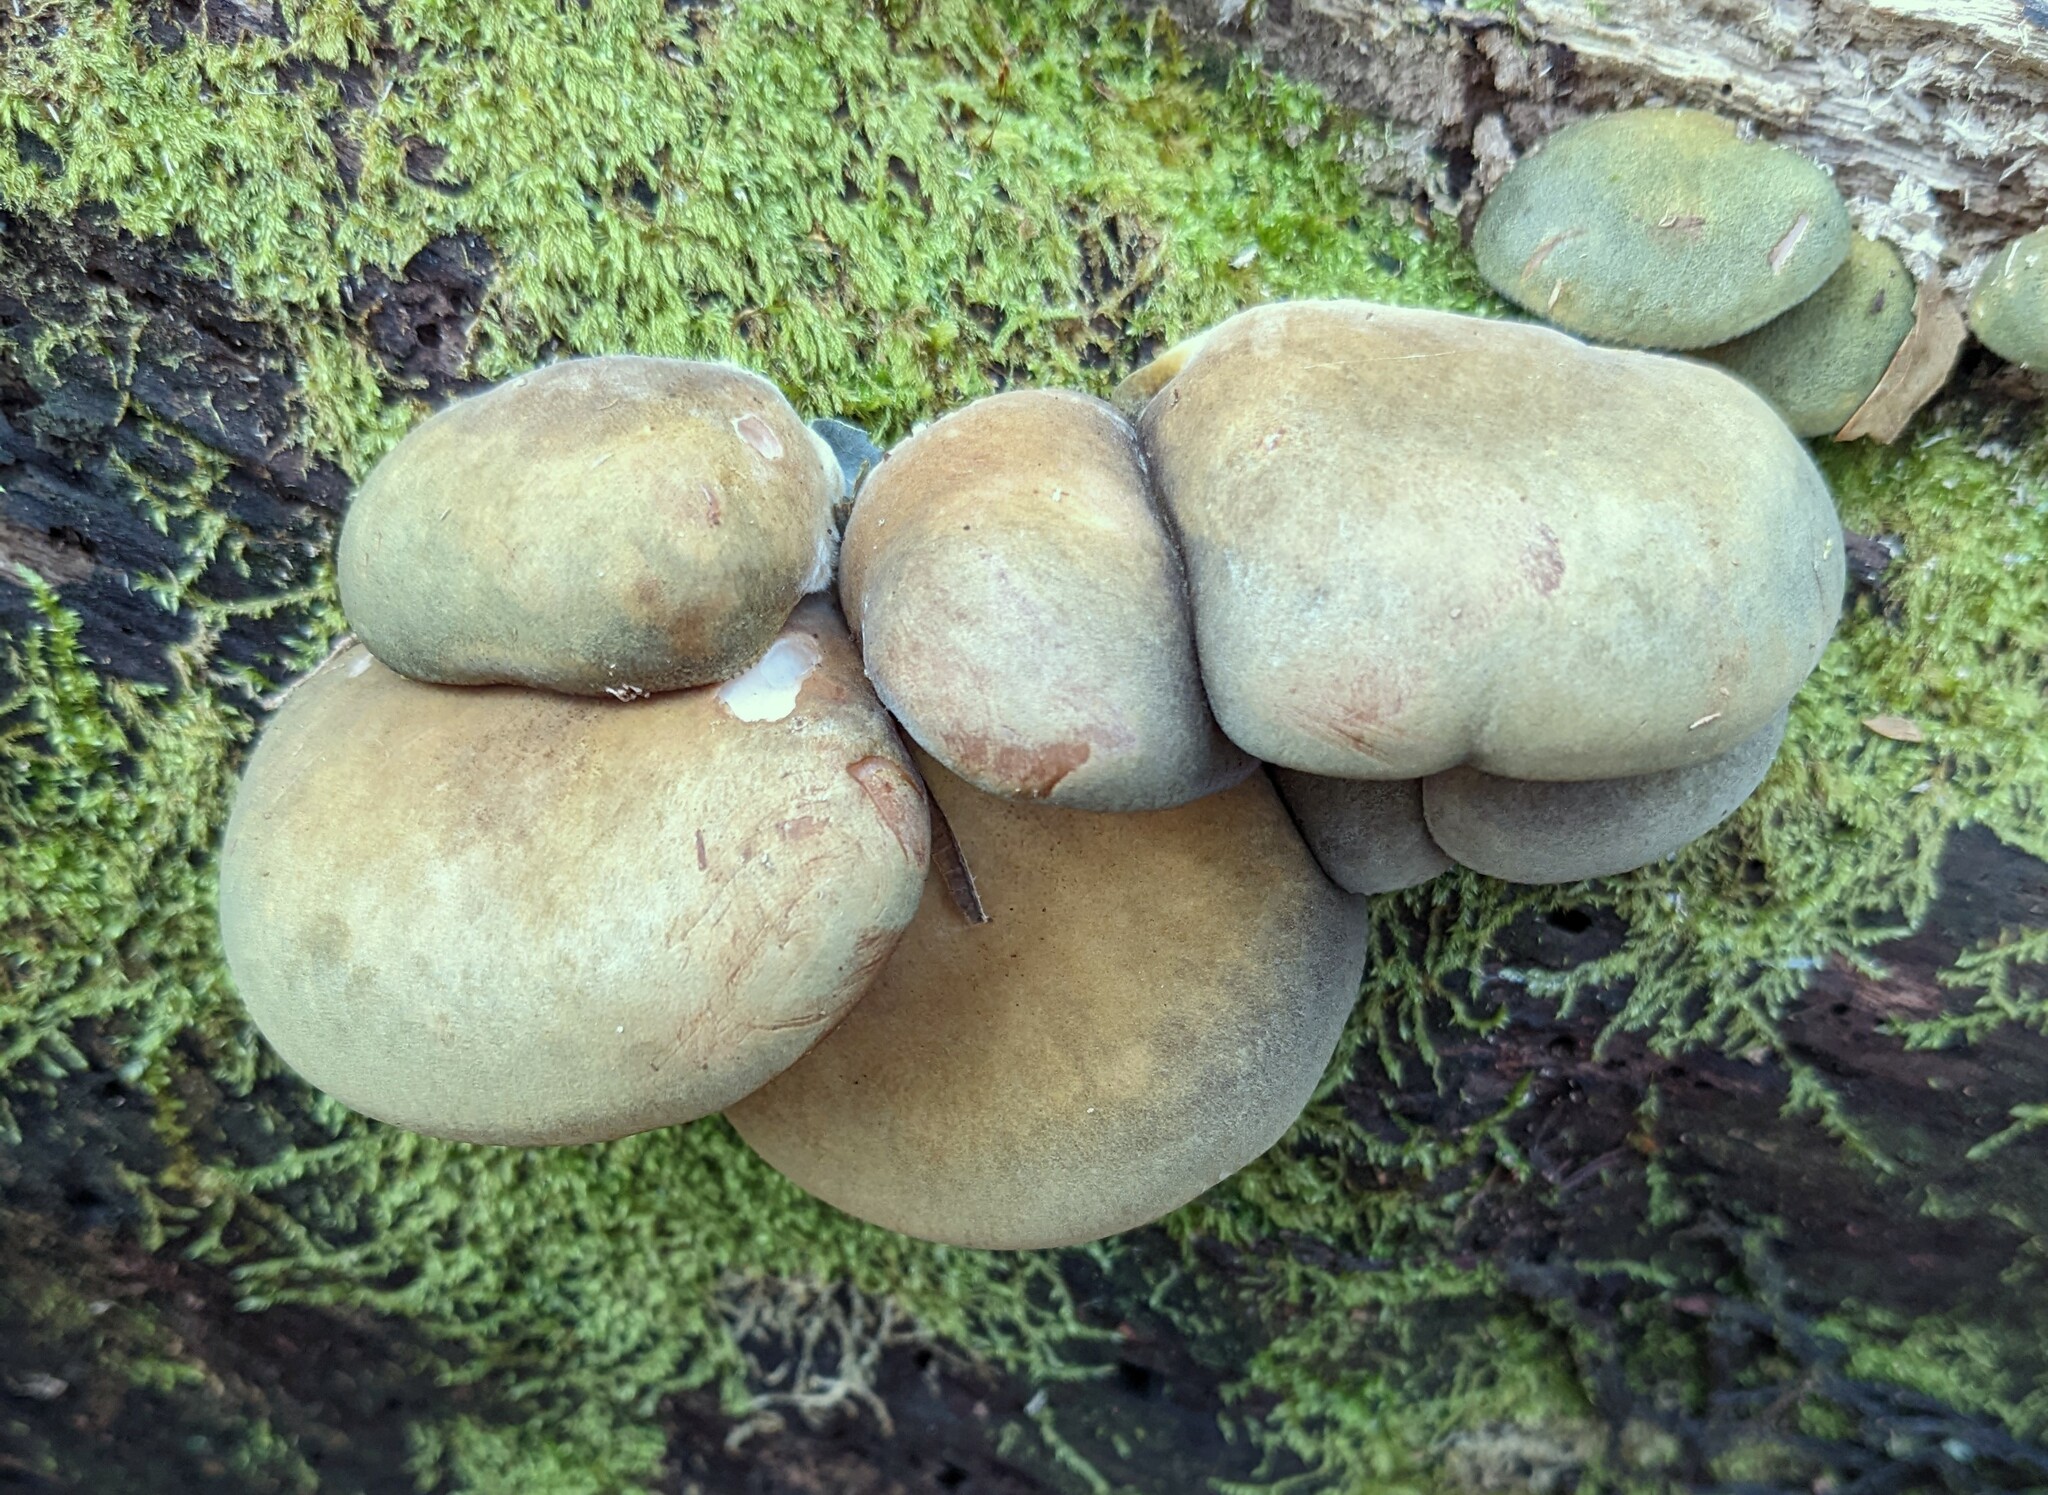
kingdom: Fungi
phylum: Basidiomycota
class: Agaricomycetes
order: Agaricales
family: Sarcomyxaceae
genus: Sarcomyxa
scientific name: Sarcomyxa serotina
